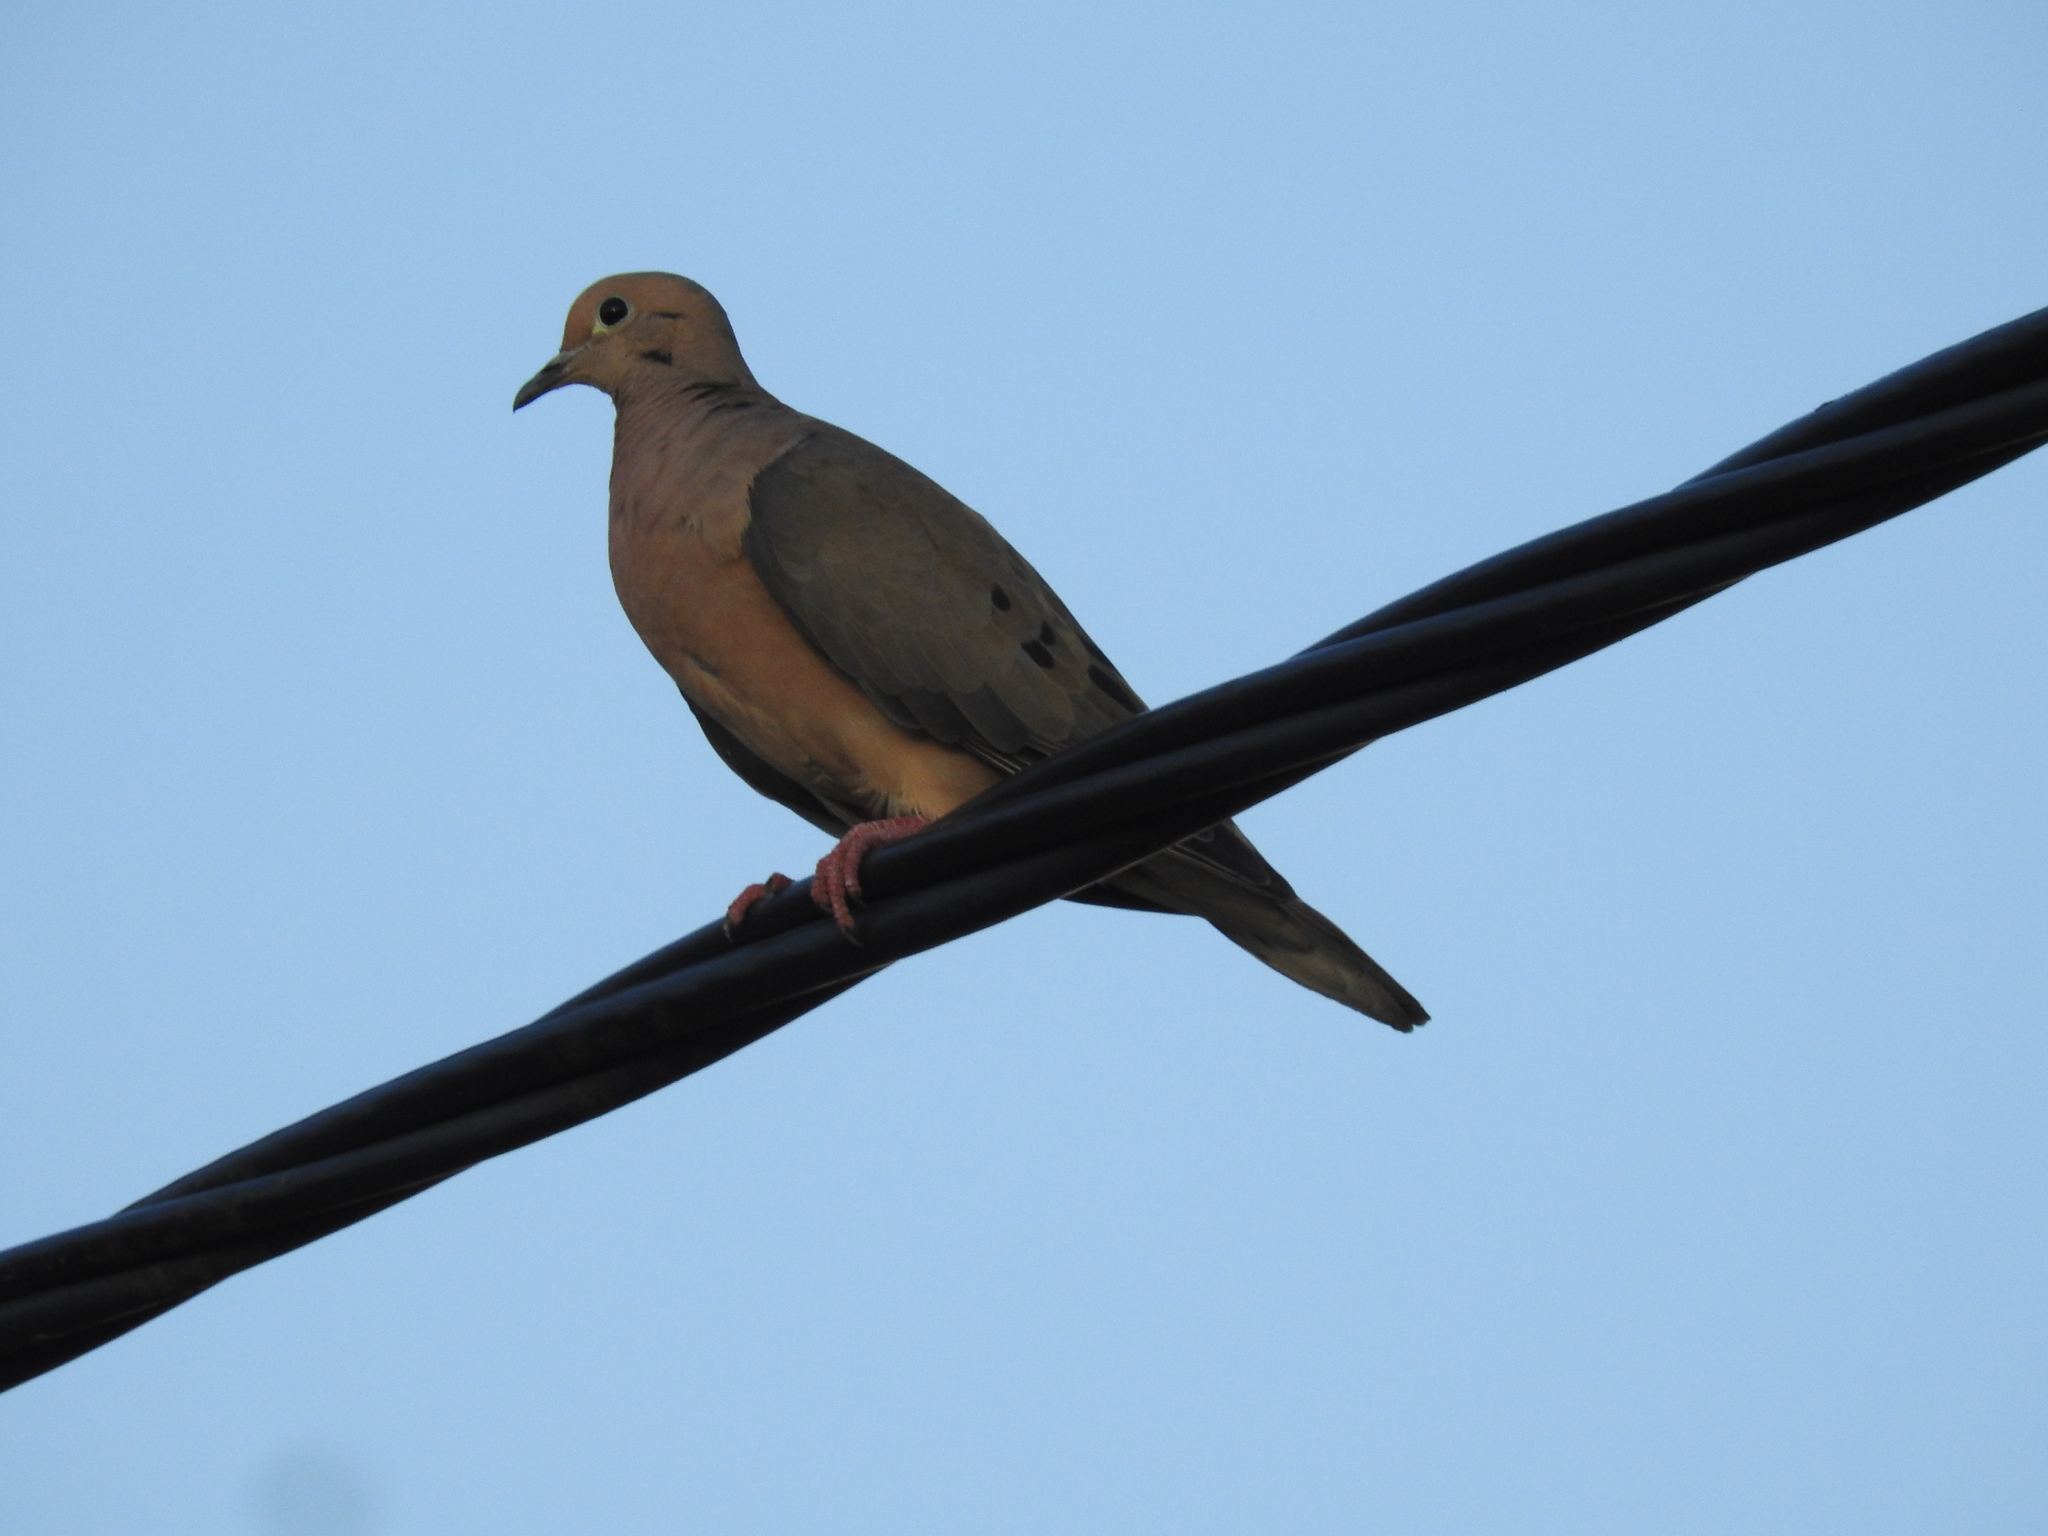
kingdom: Animalia
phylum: Chordata
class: Aves
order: Columbiformes
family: Columbidae
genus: Zenaida
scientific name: Zenaida auriculata
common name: Eared dove
